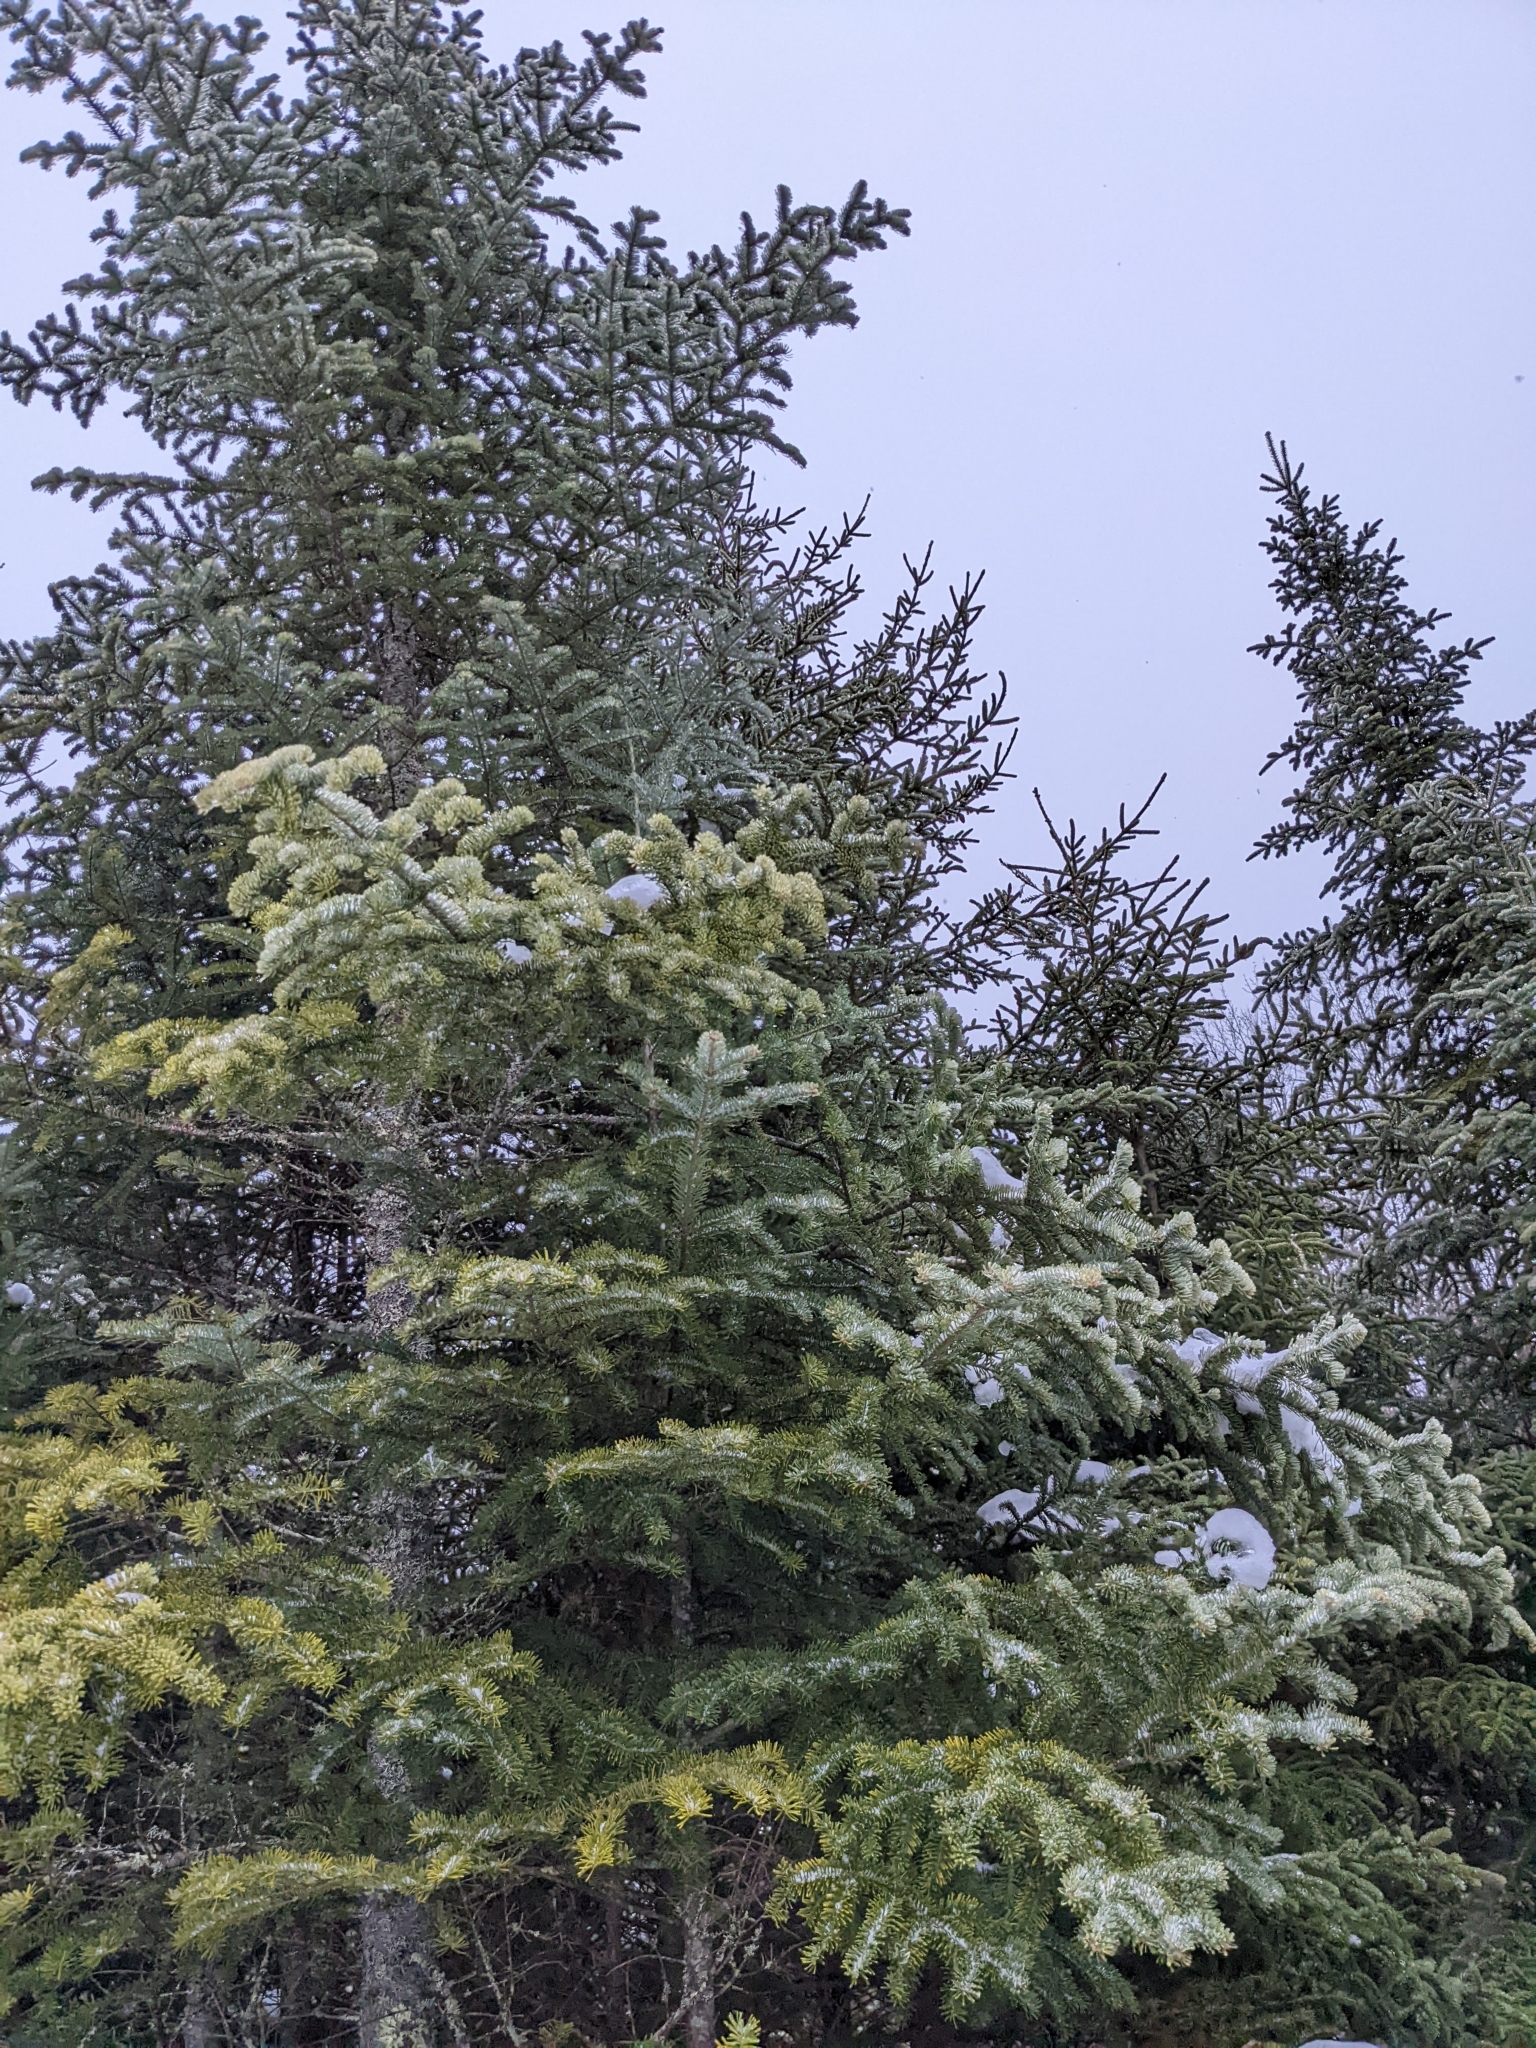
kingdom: Plantae
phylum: Tracheophyta
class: Pinopsida
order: Pinales
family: Pinaceae
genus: Abies
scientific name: Abies balsamea
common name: Balsam fir
